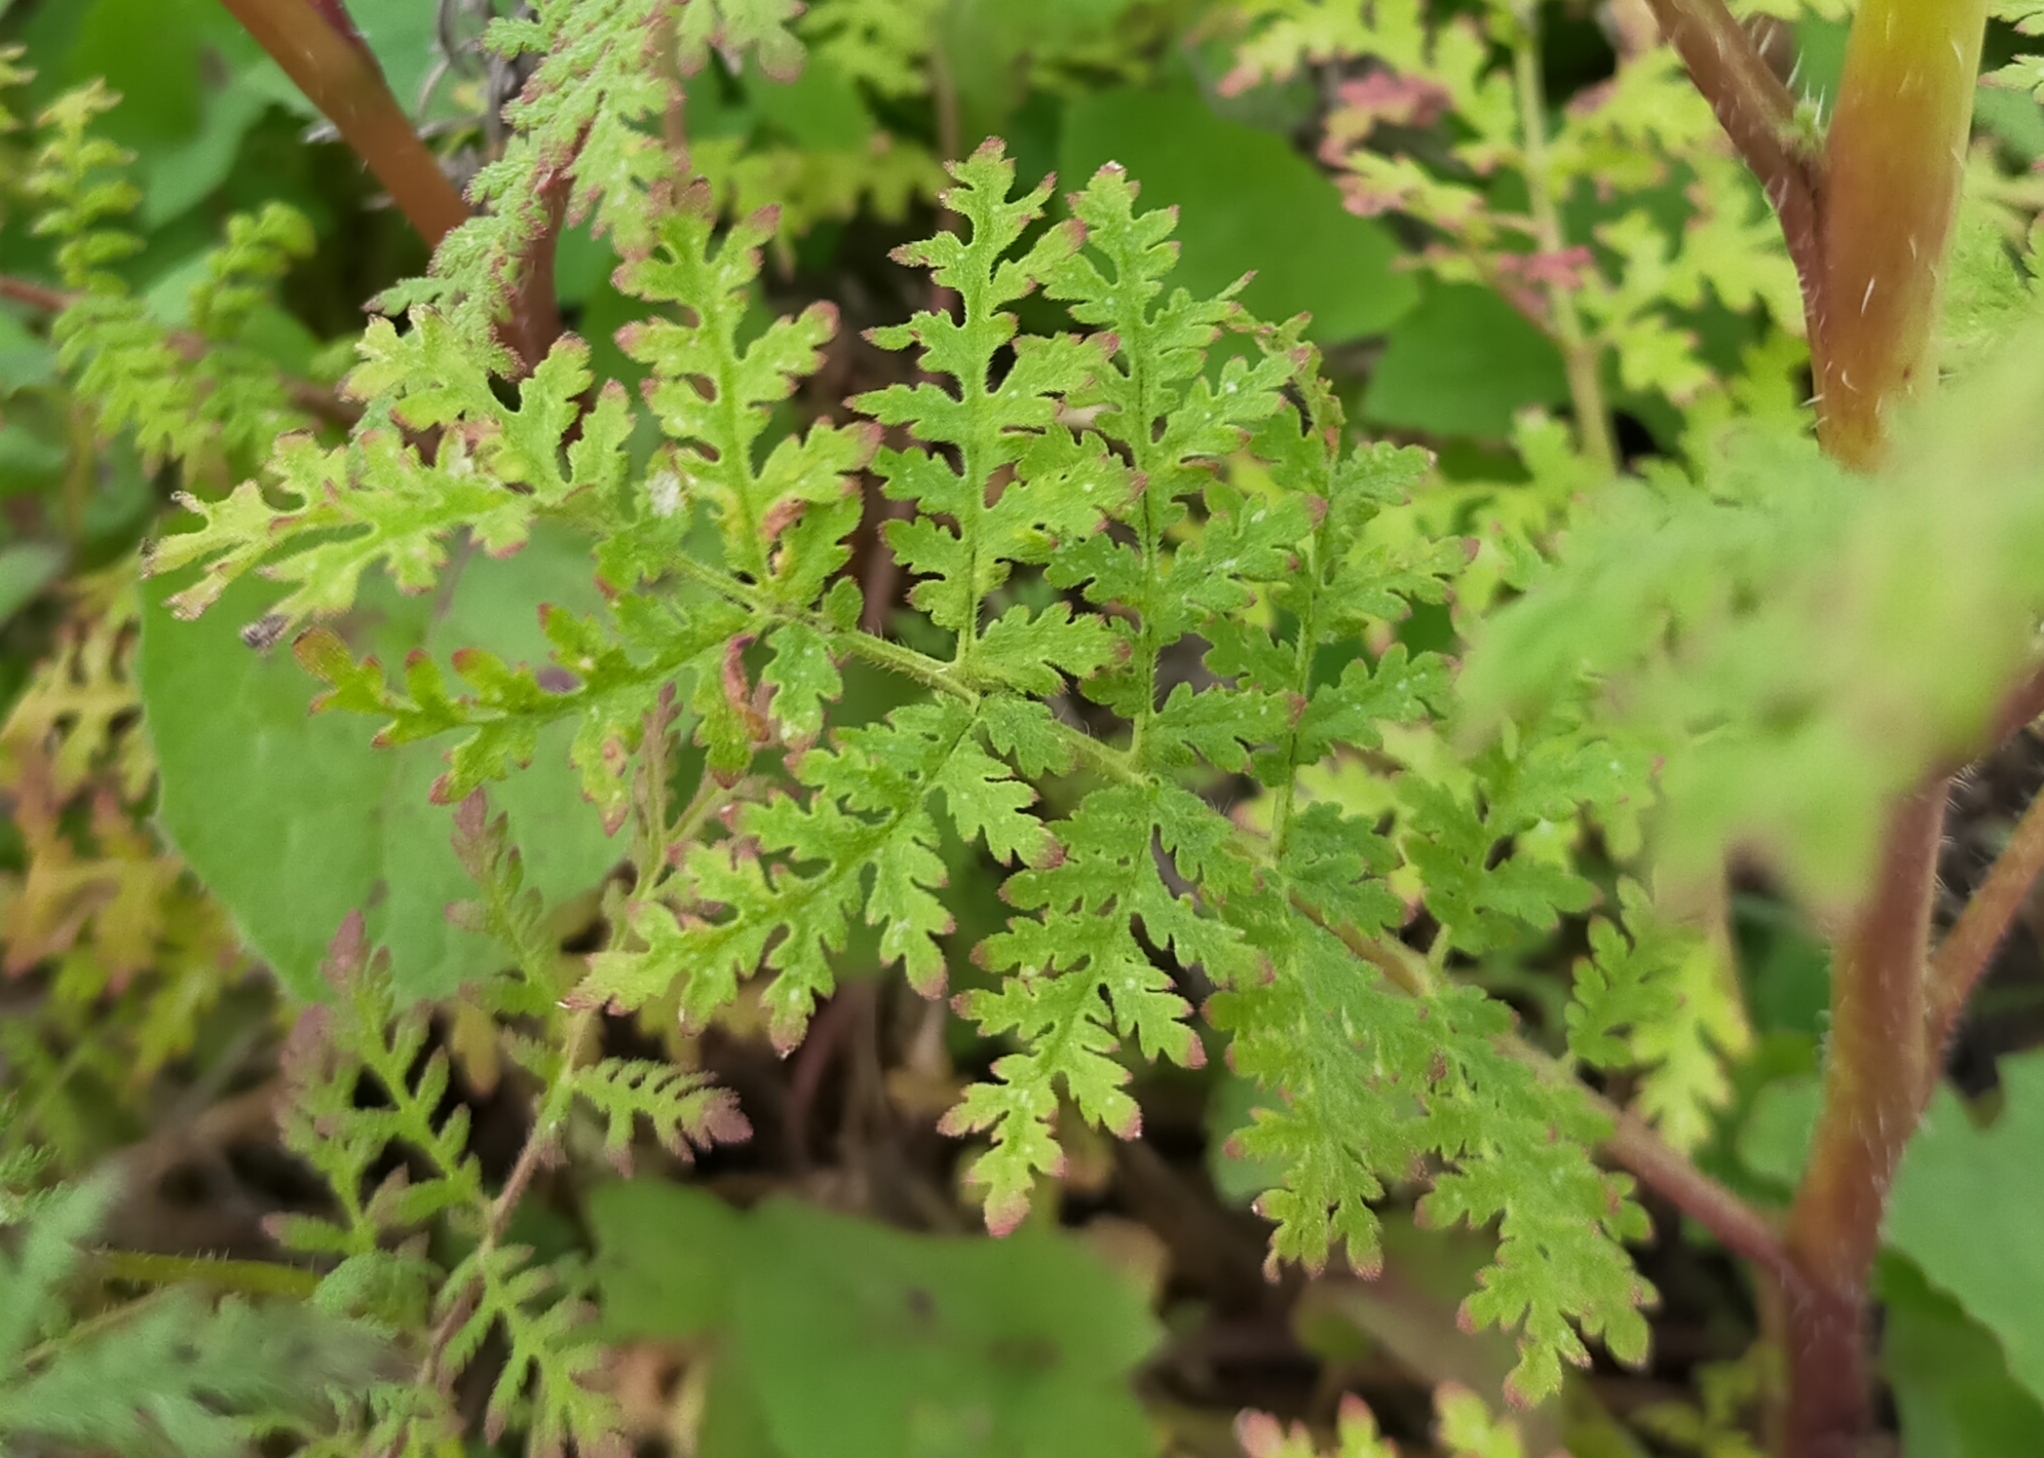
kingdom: Plantae
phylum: Tracheophyta
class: Magnoliopsida
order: Apiales
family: Apiaceae
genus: Anthriscus
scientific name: Anthriscus caucalis
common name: Bur chervil
